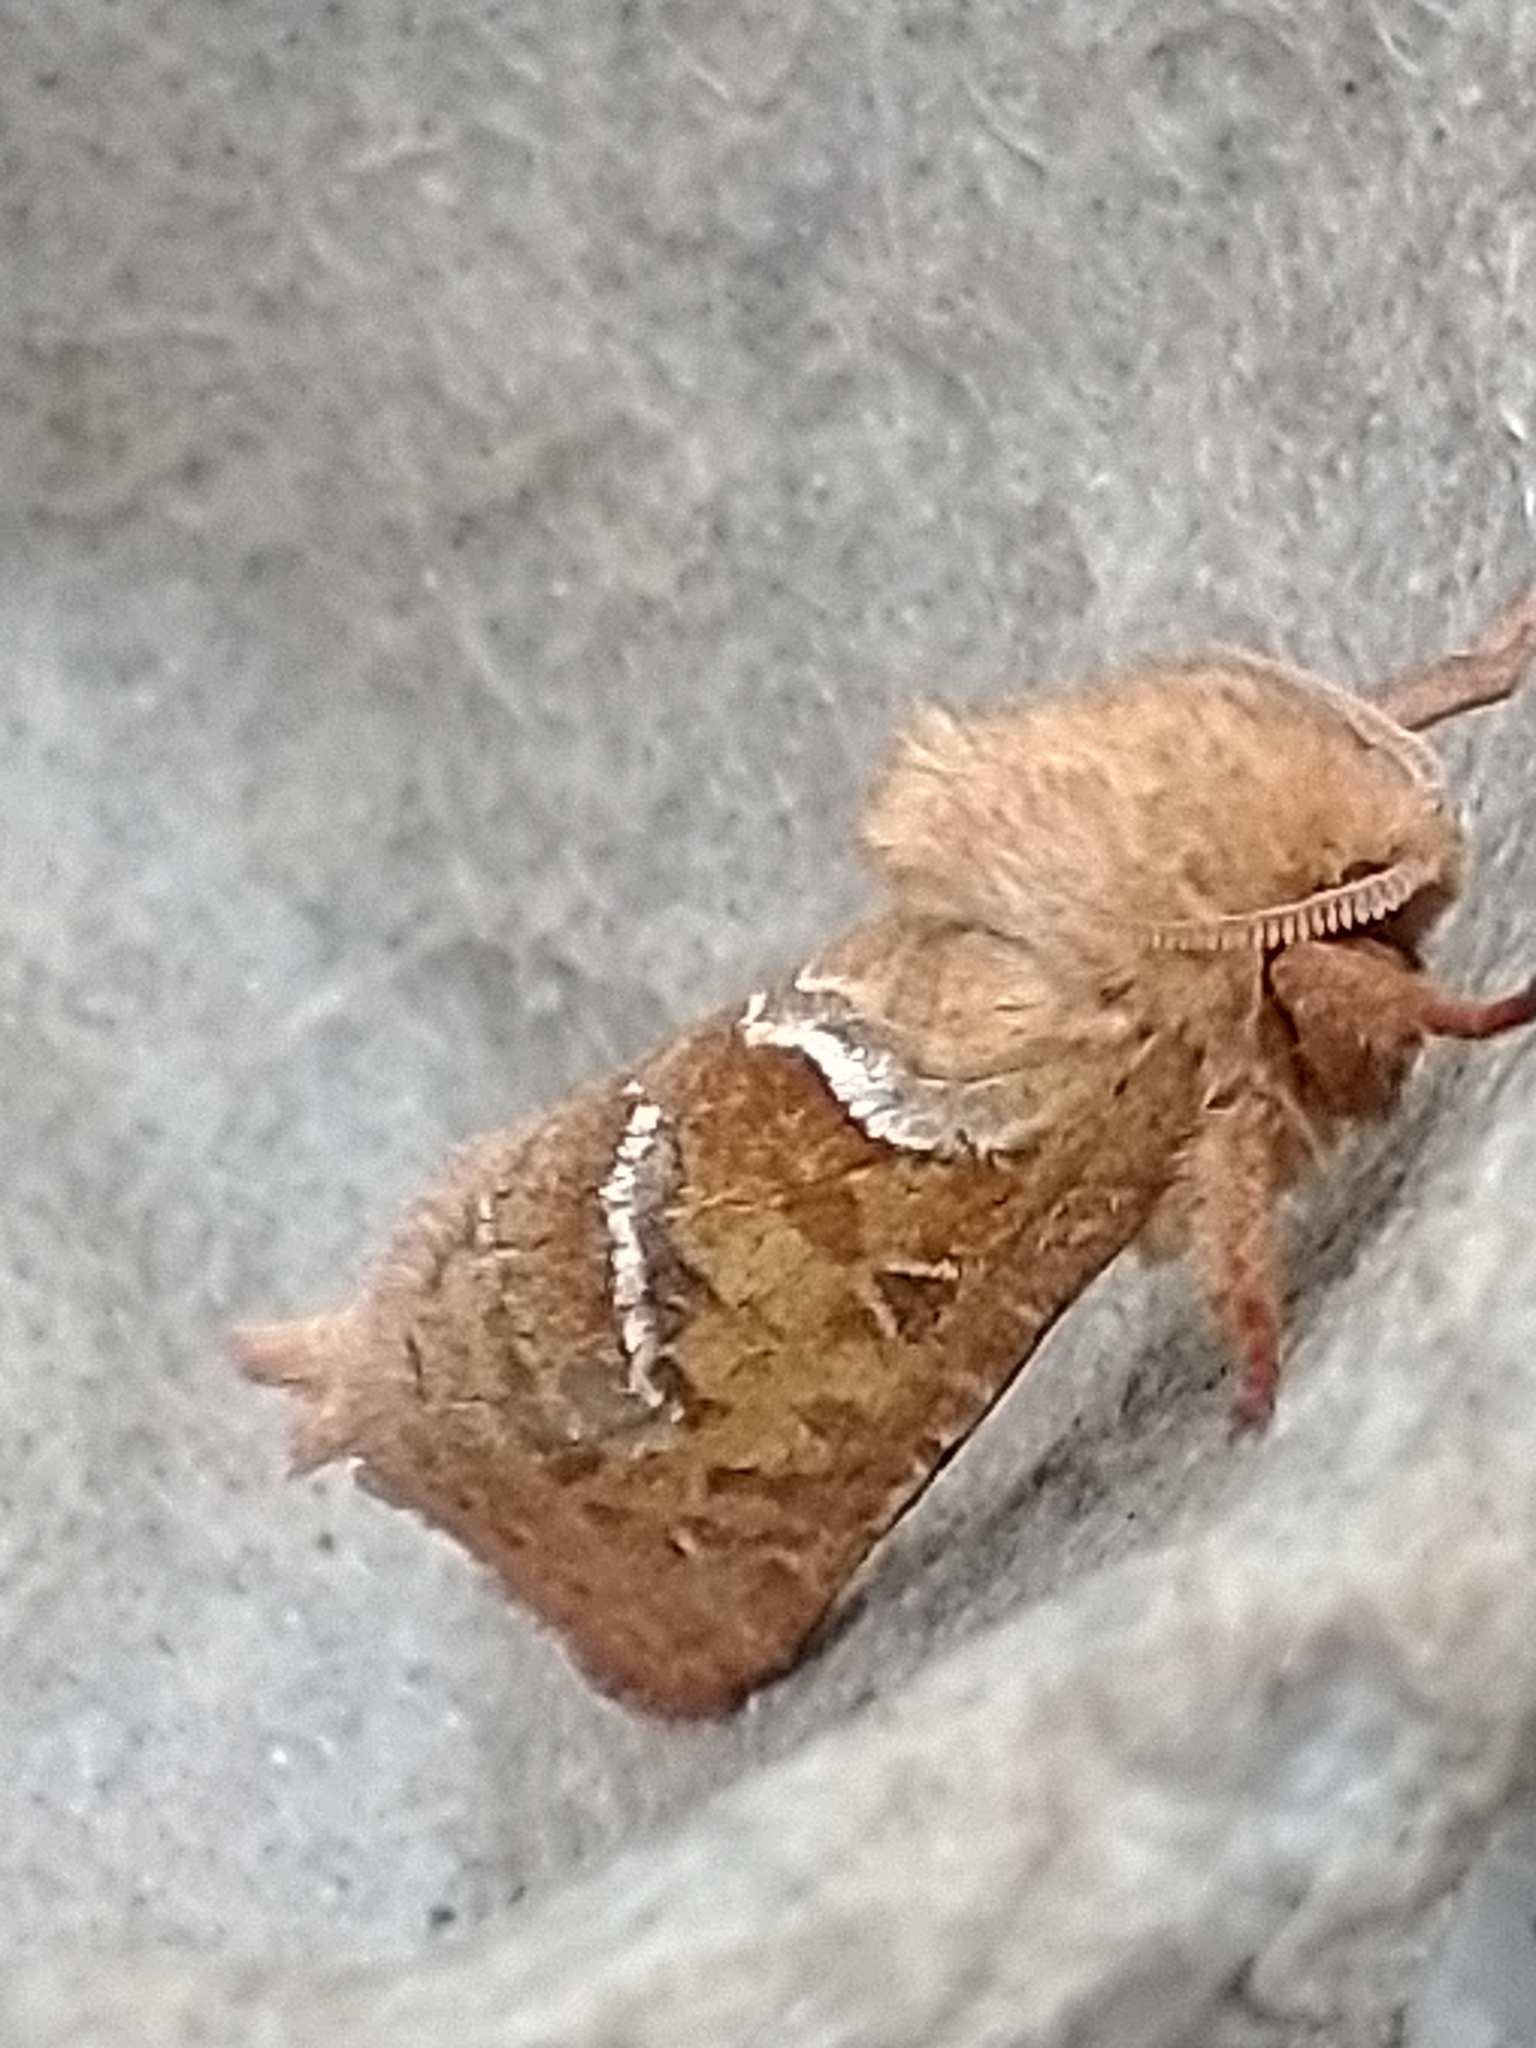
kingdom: Animalia
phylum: Arthropoda
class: Insecta
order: Lepidoptera
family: Hepialidae
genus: Triodia
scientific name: Triodia sylvina
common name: Orange swift
